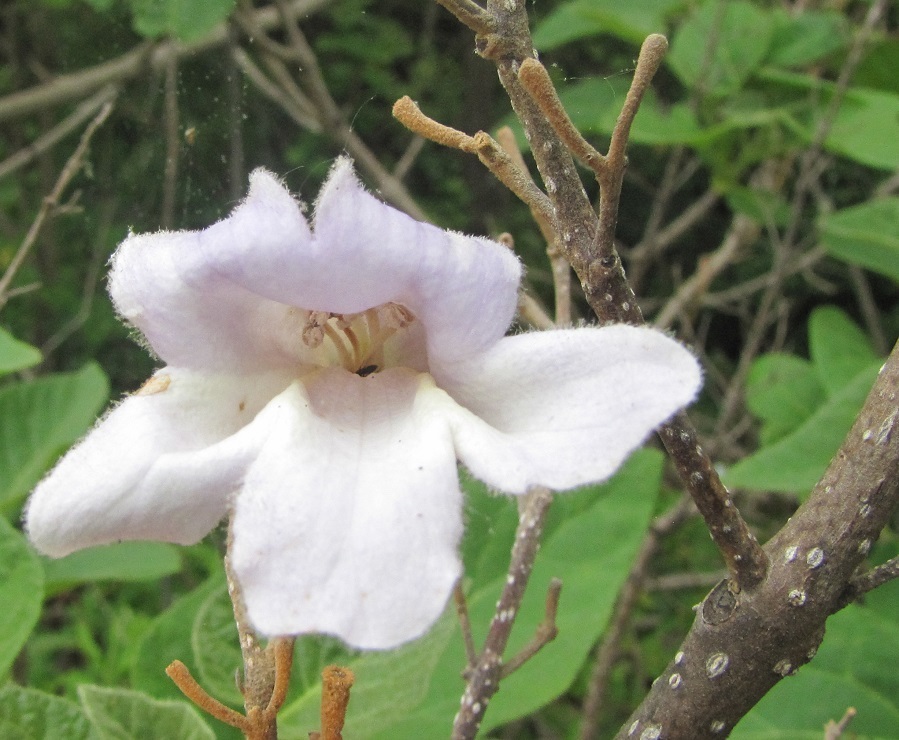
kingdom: Plantae
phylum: Tracheophyta
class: Magnoliopsida
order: Lamiales
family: Paulowniaceae
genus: Paulownia
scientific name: Paulownia tomentosa
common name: Foxglove-tree
